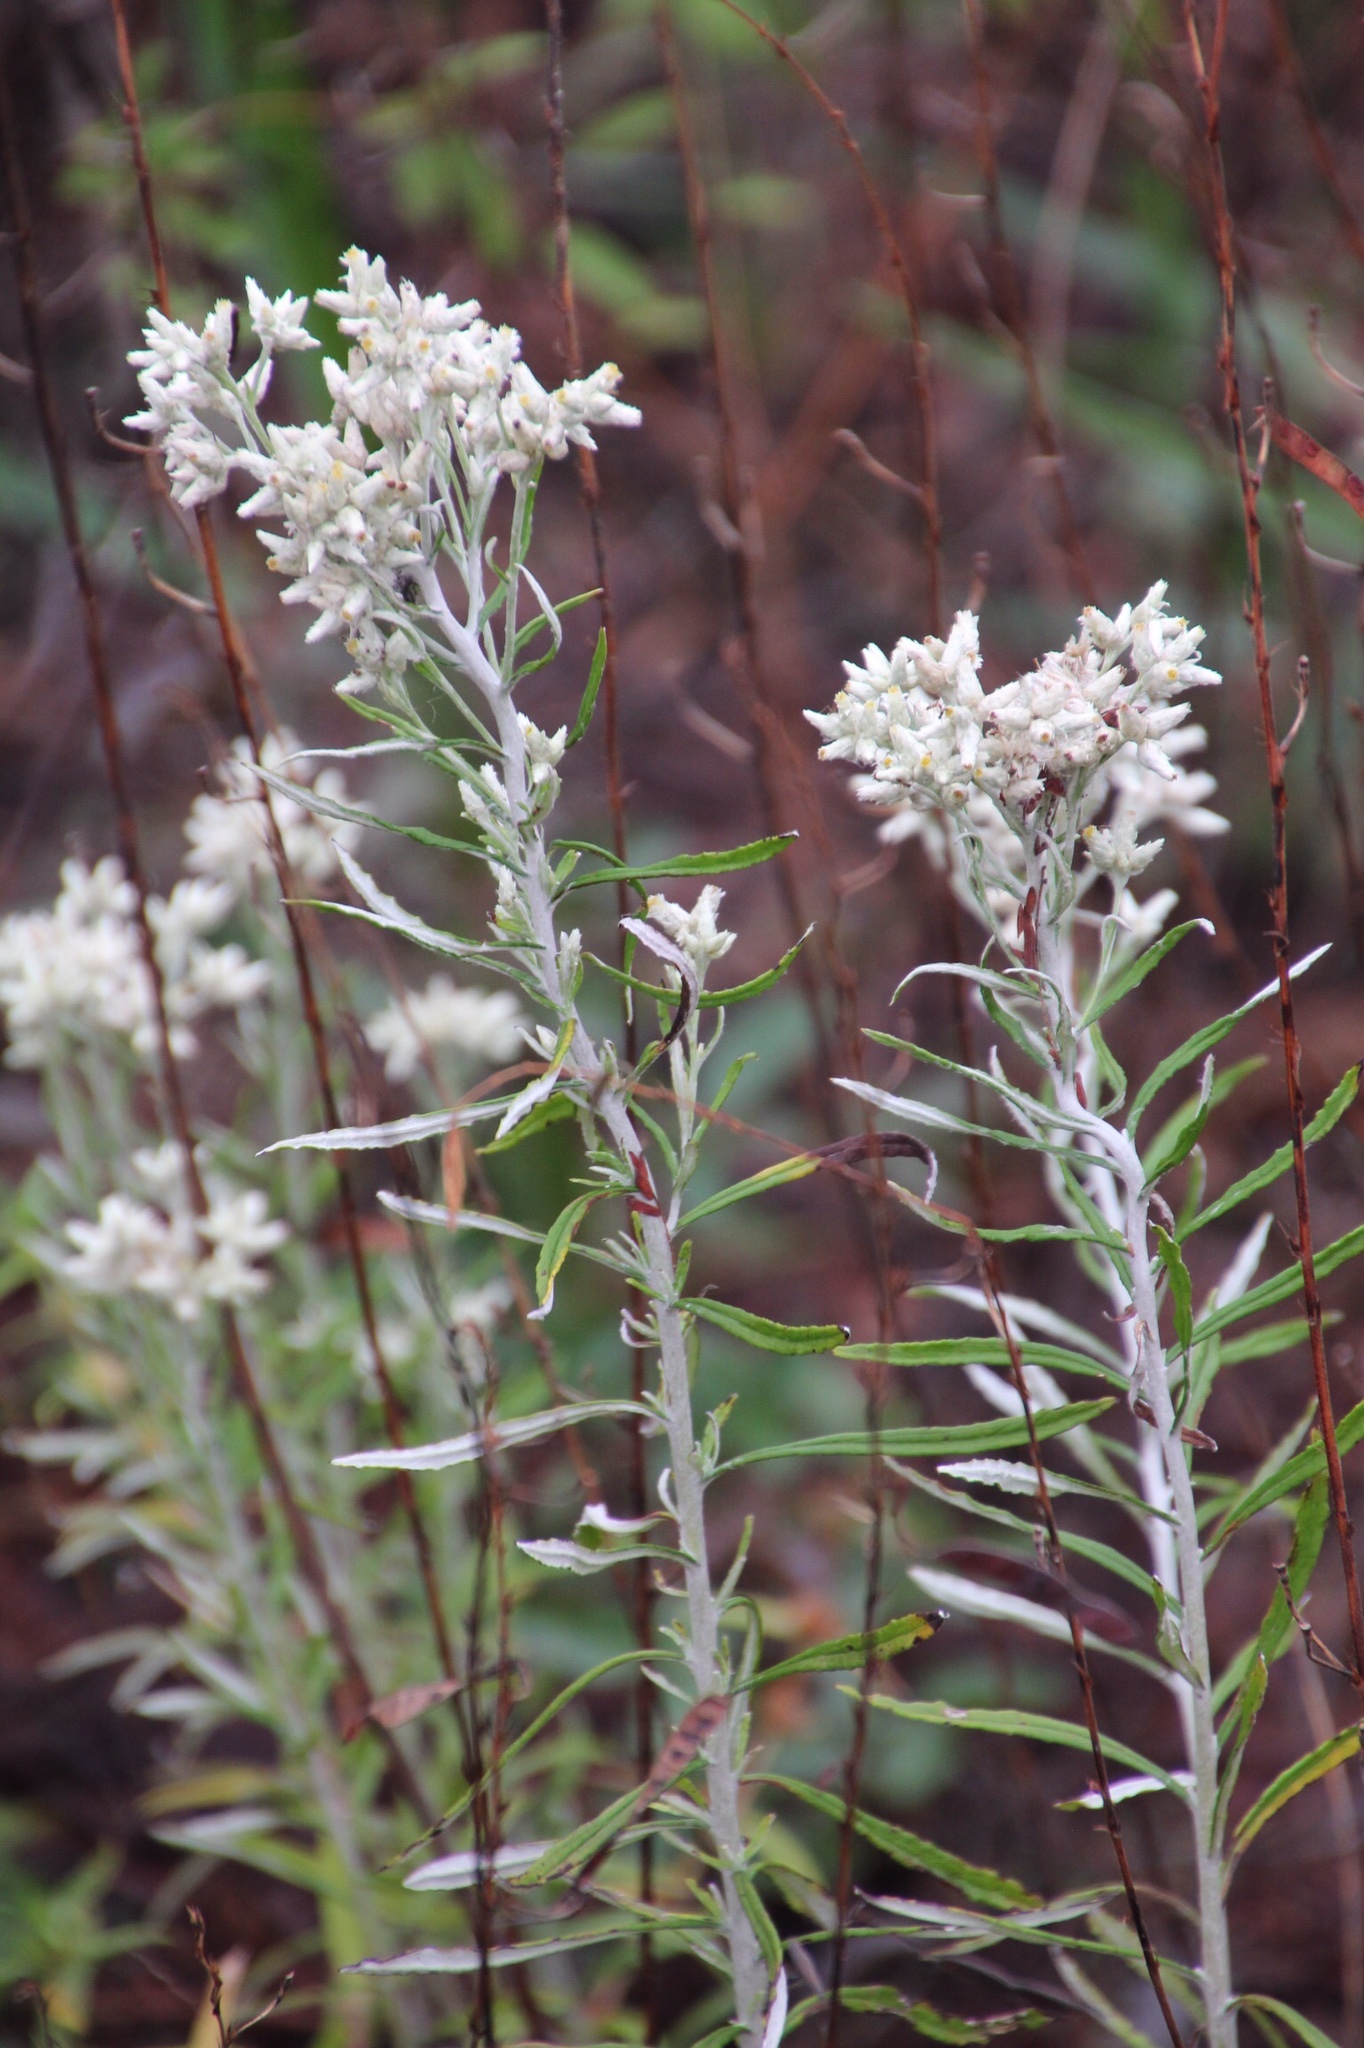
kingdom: Plantae
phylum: Tracheophyta
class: Magnoliopsida
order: Asterales
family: Asteraceae
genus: Pseudognaphalium
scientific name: Pseudognaphalium obtusifolium
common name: Eastern rabbit-tobacco
